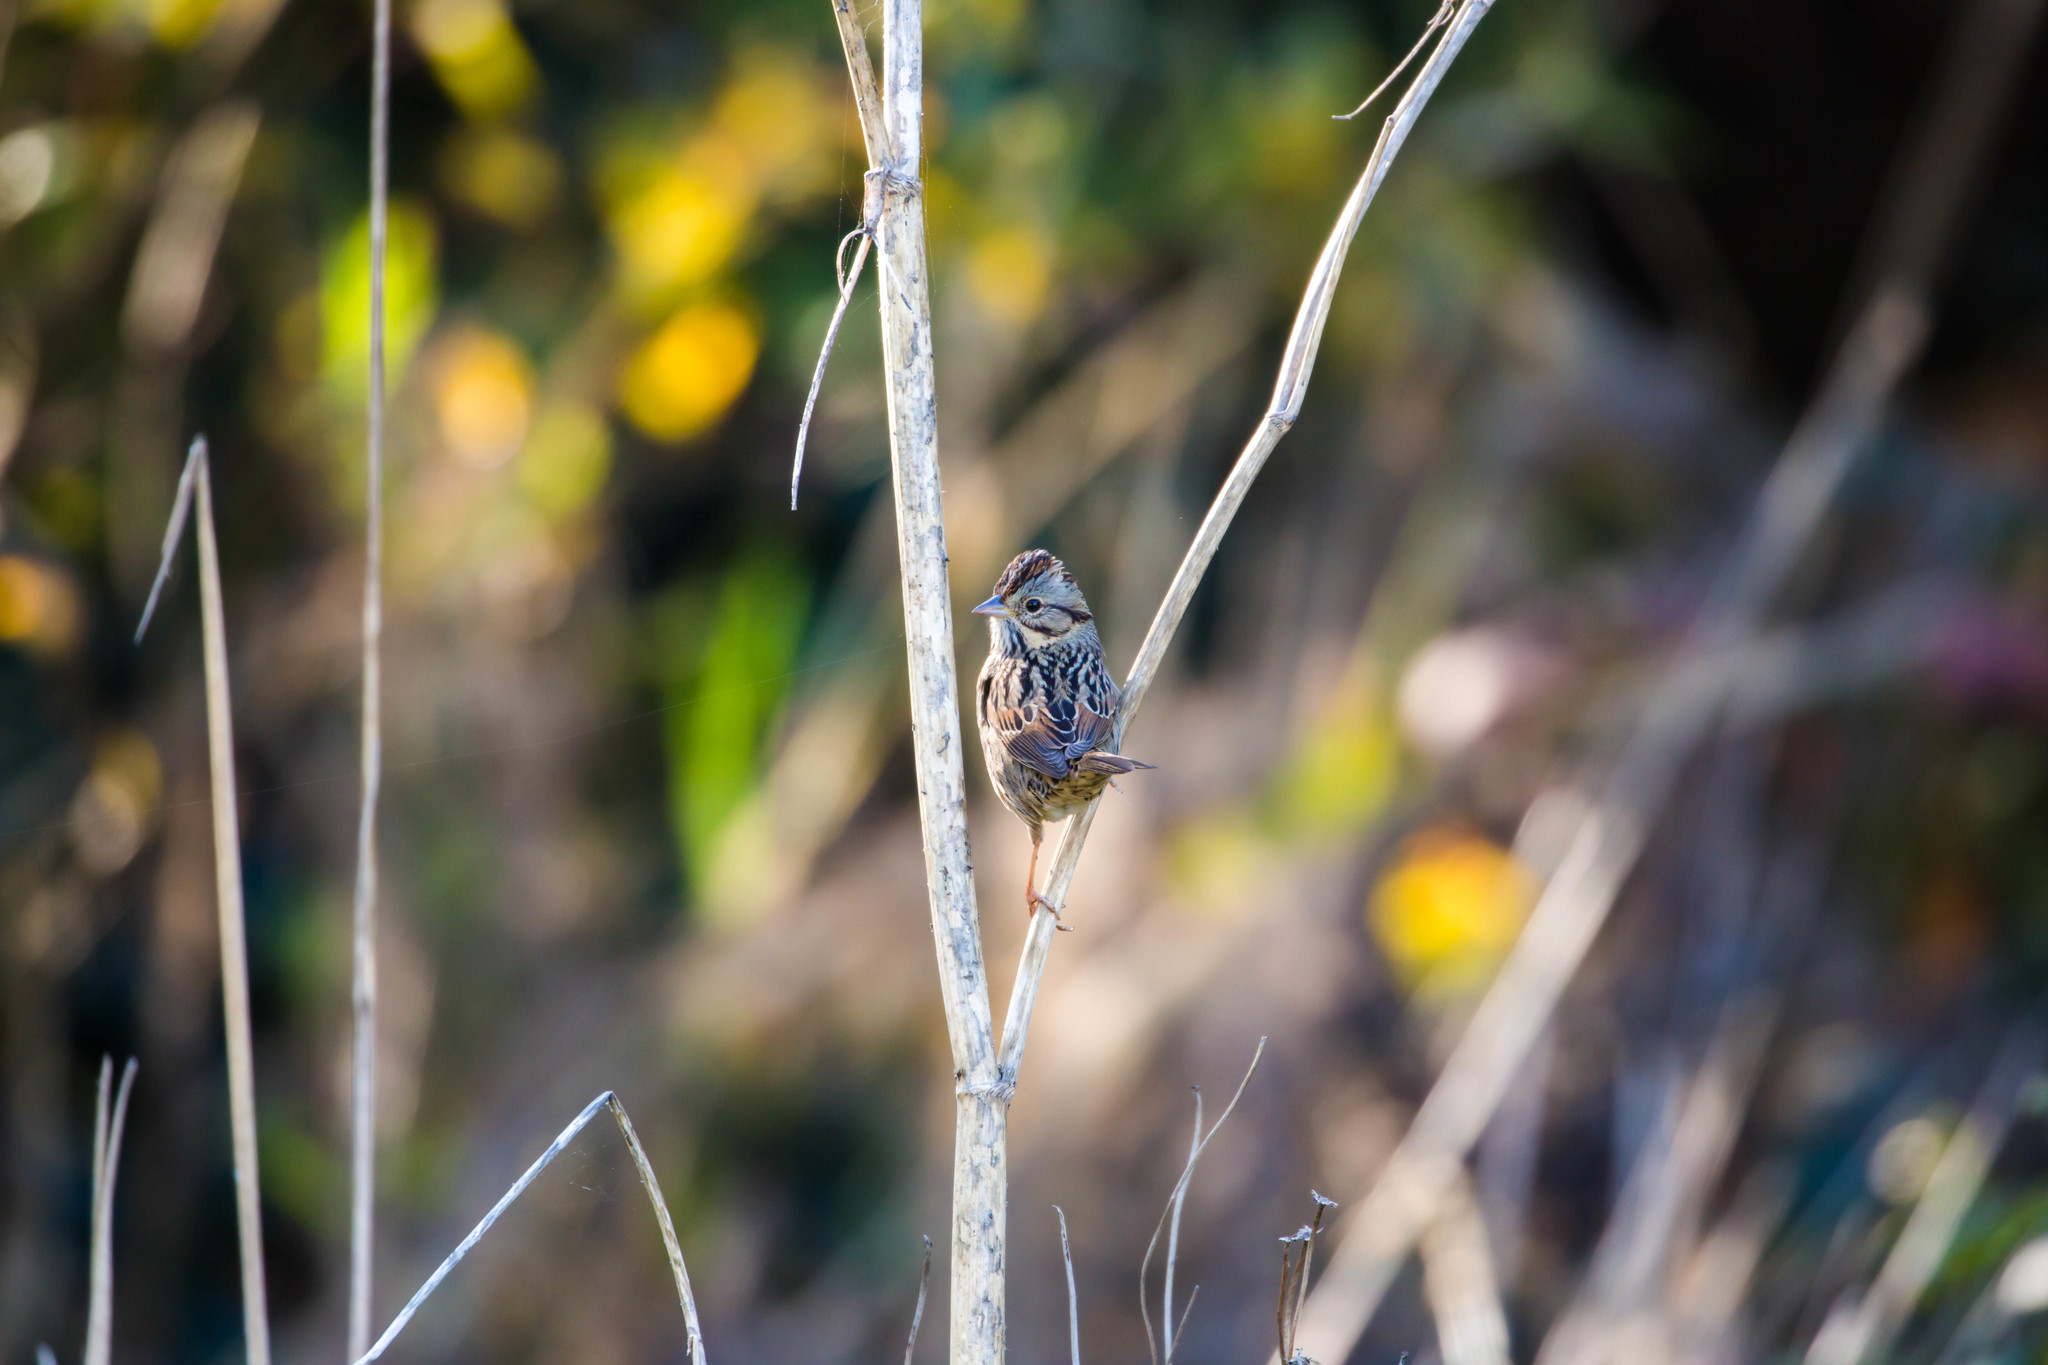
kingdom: Animalia
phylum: Chordata
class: Aves
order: Passeriformes
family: Passerellidae
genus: Melospiza
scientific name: Melospiza lincolnii
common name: Lincoln's sparrow
